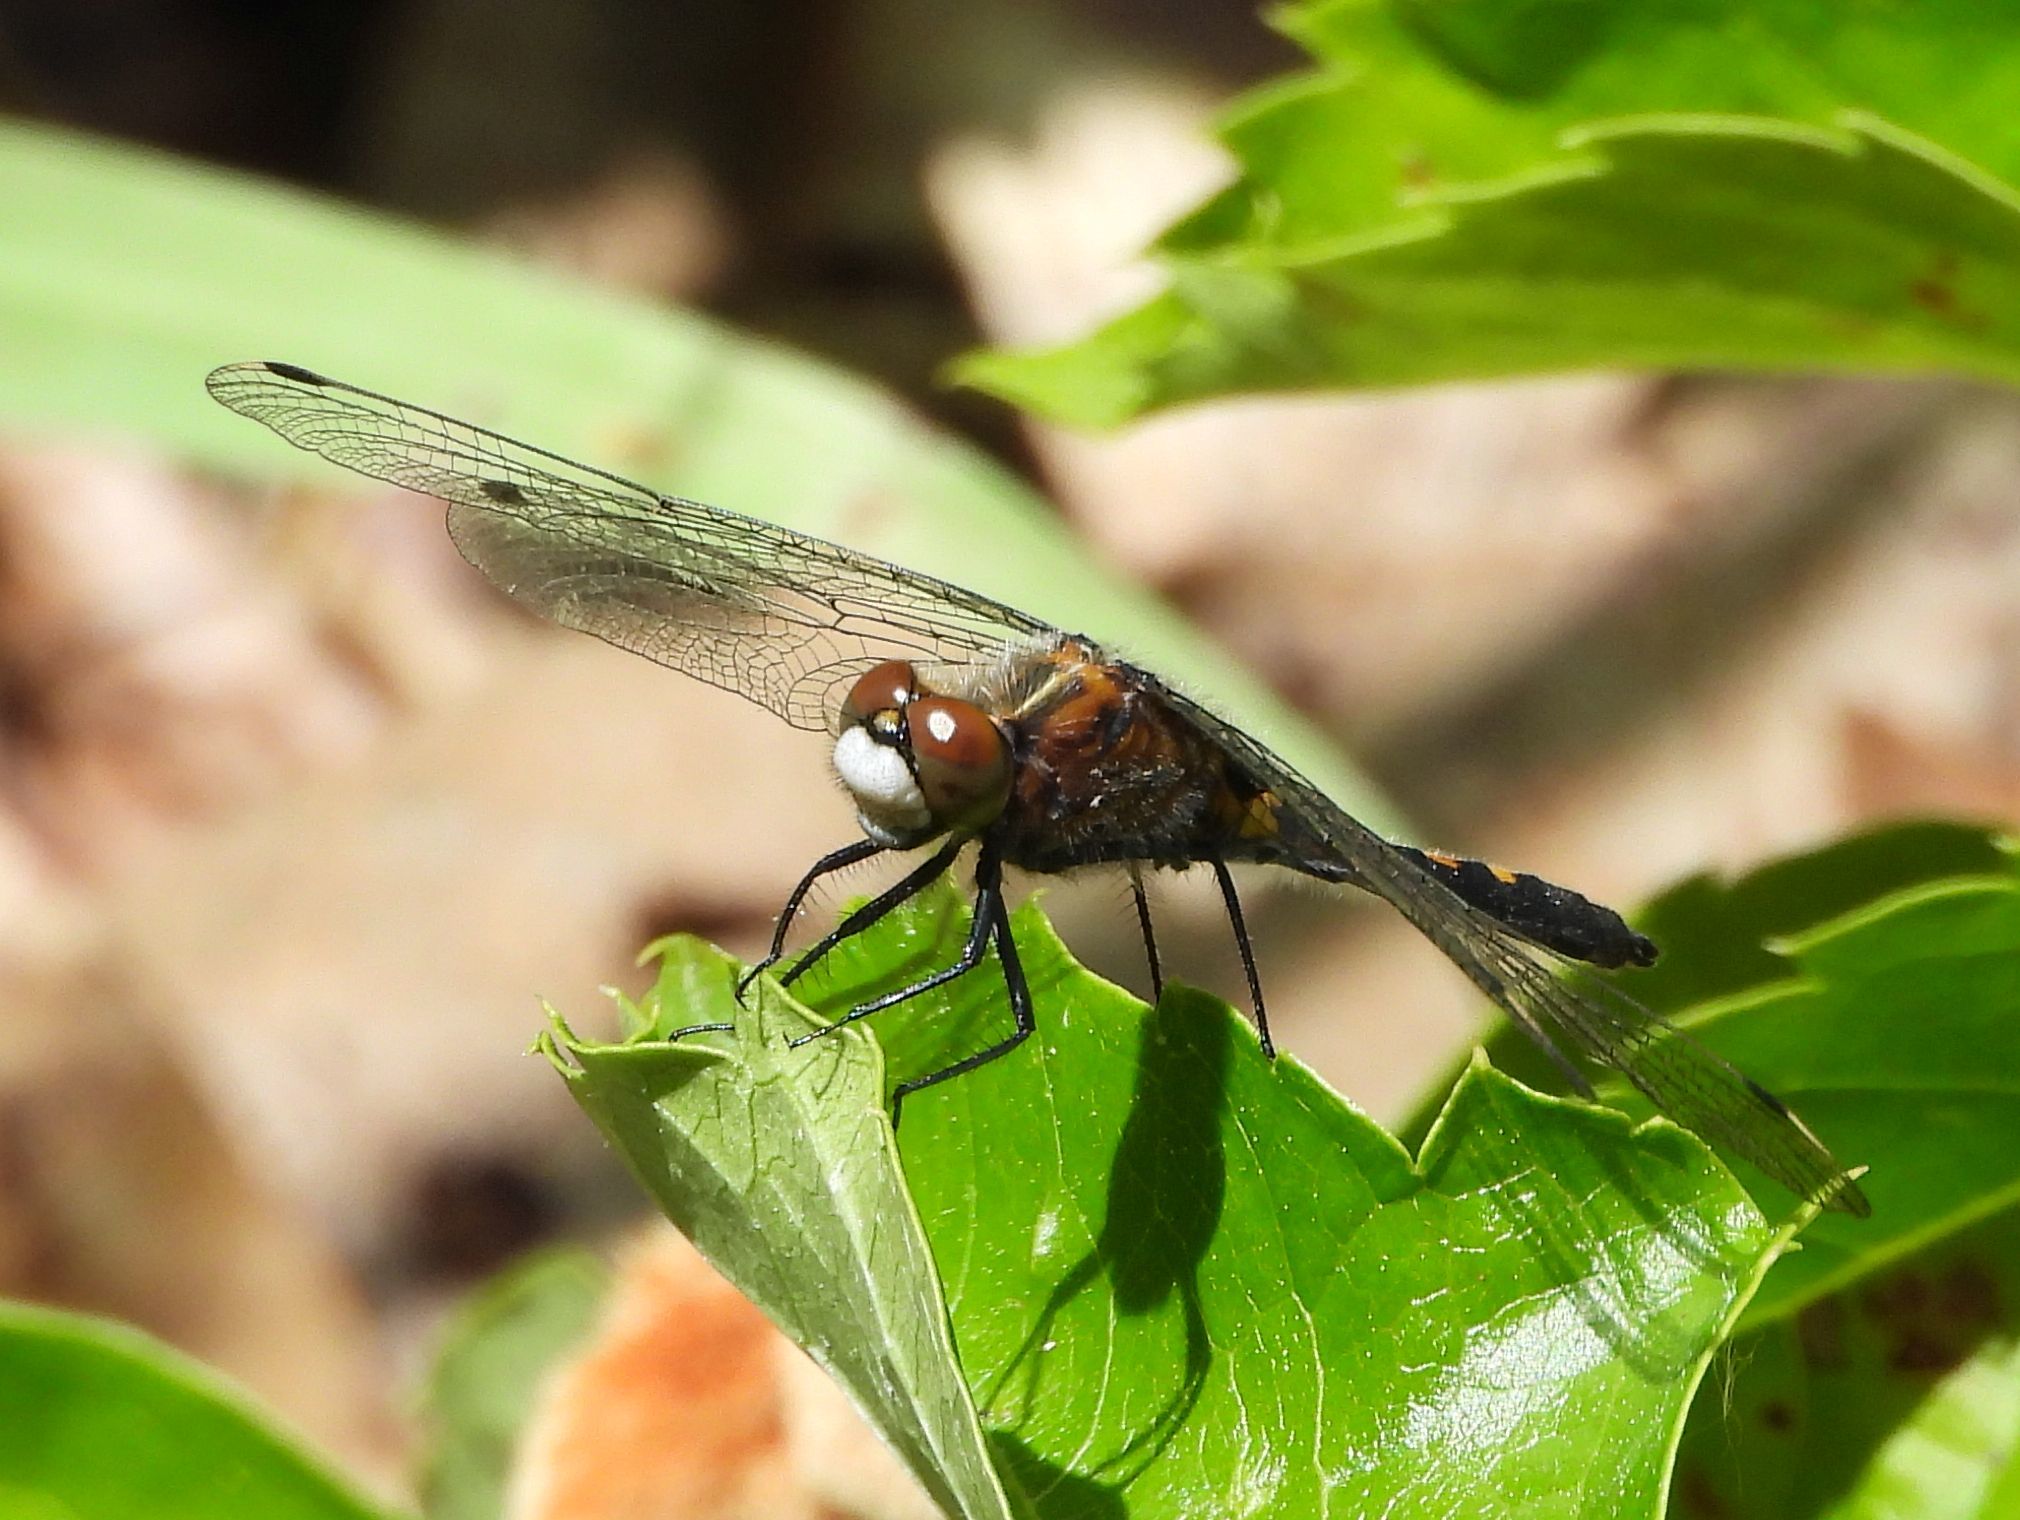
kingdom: Animalia
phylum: Arthropoda
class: Insecta
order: Odonata
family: Libellulidae
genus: Leucorrhinia
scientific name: Leucorrhinia intacta
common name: Dot-tailed whiteface
